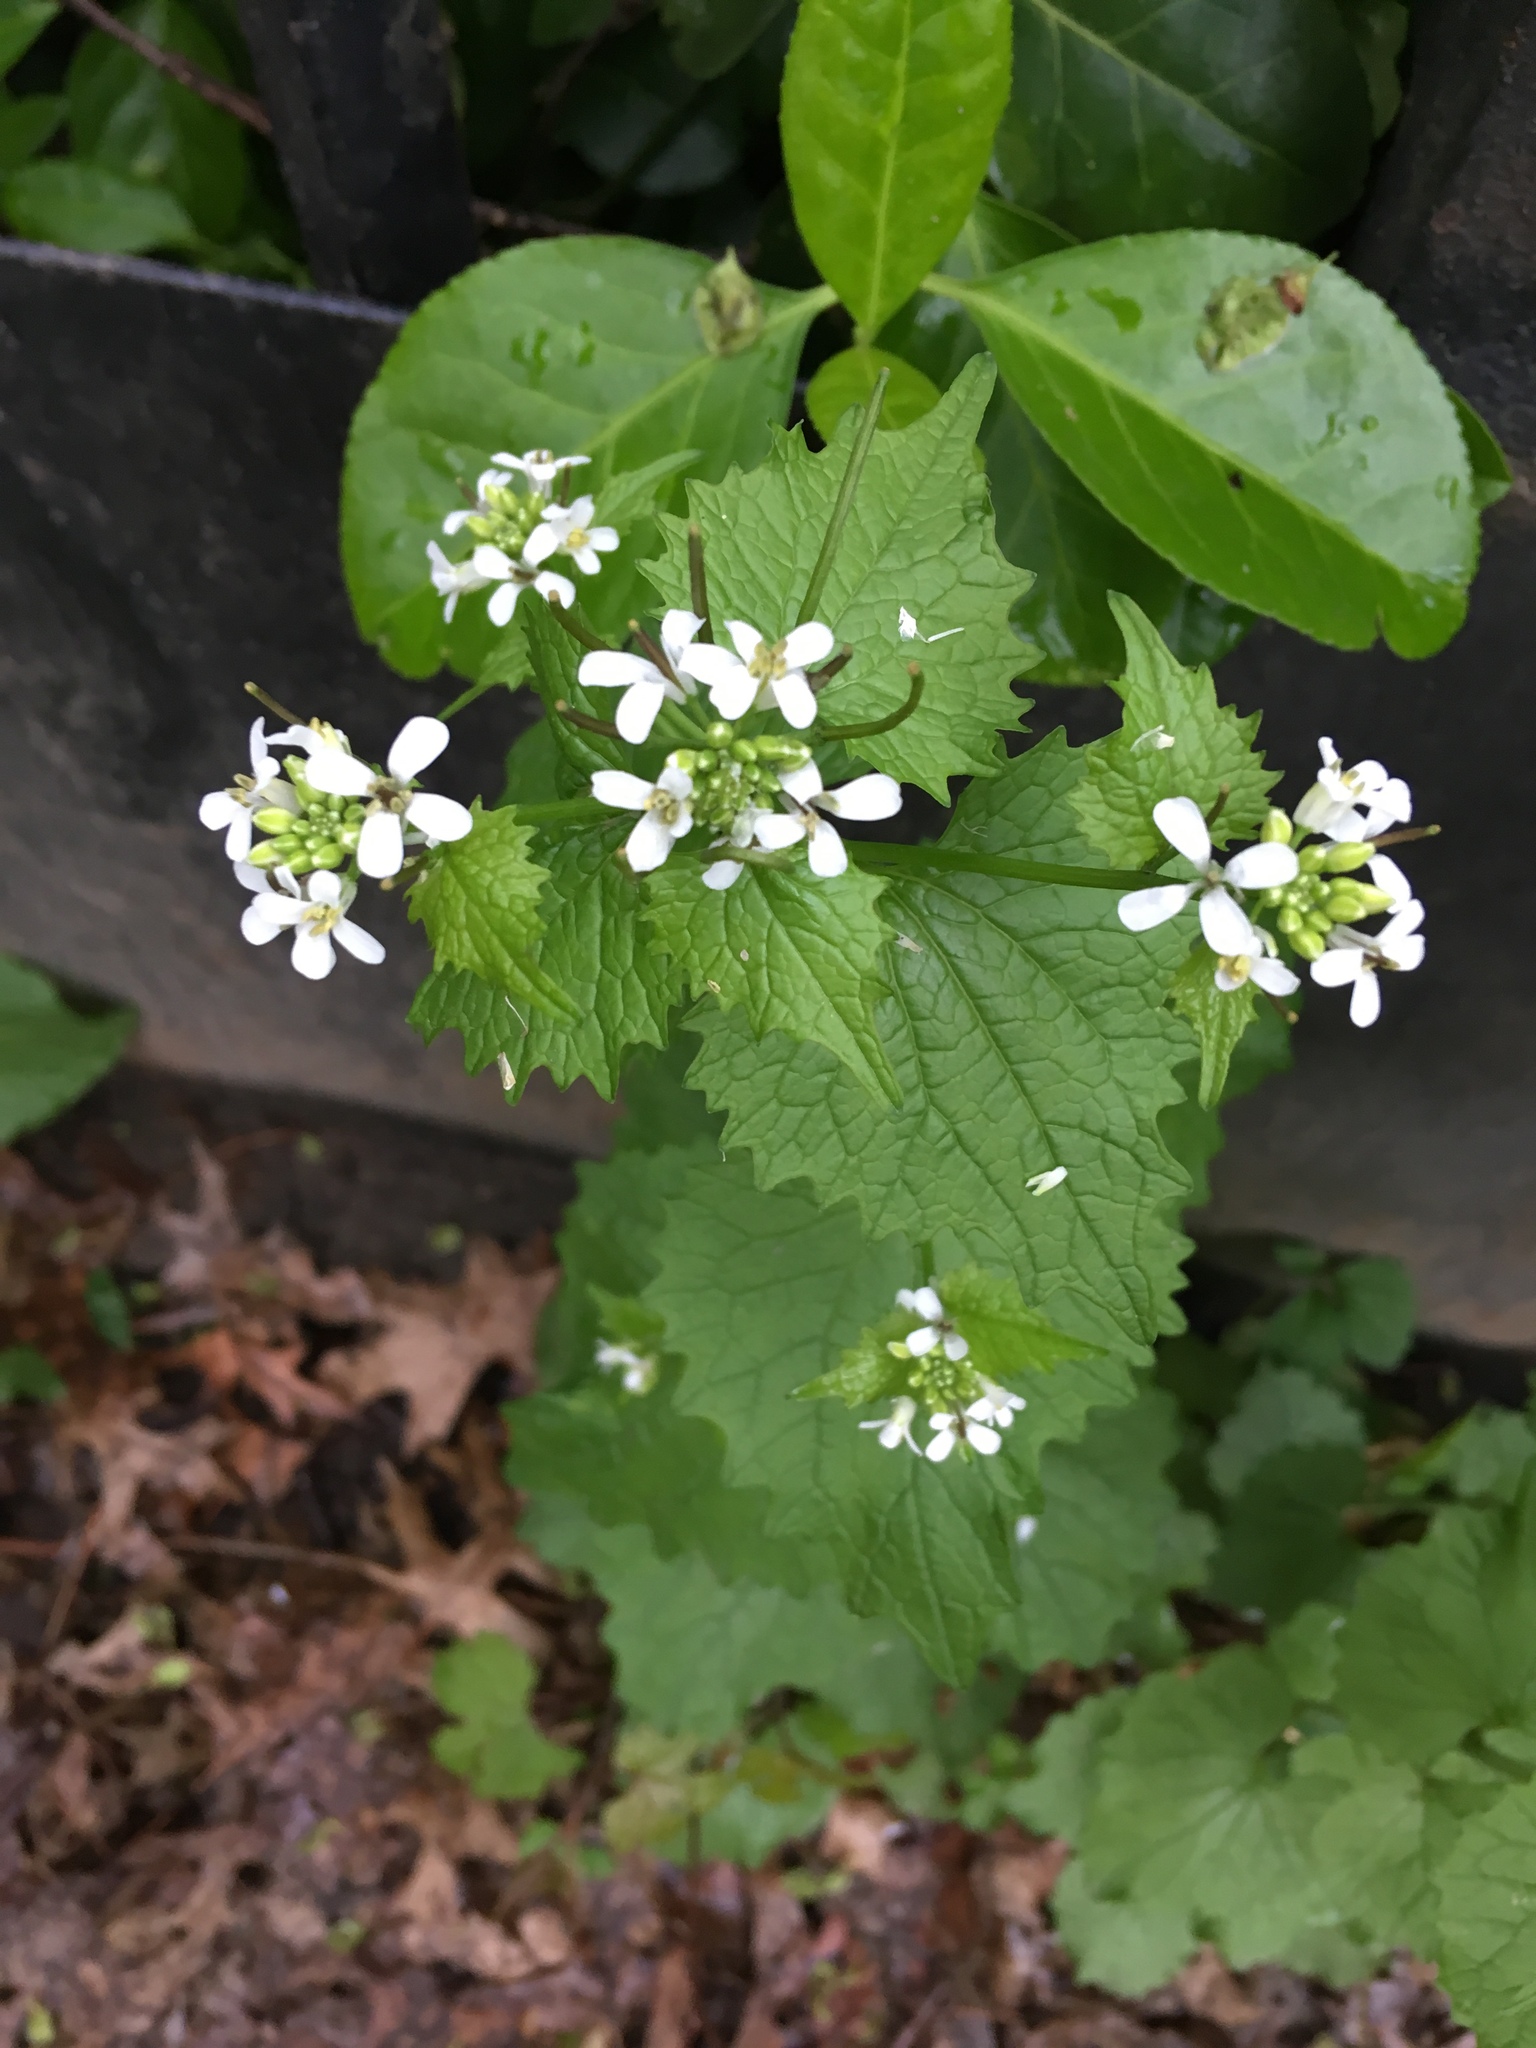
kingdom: Plantae
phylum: Tracheophyta
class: Magnoliopsida
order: Brassicales
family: Brassicaceae
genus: Alliaria
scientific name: Alliaria petiolata
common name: Garlic mustard
